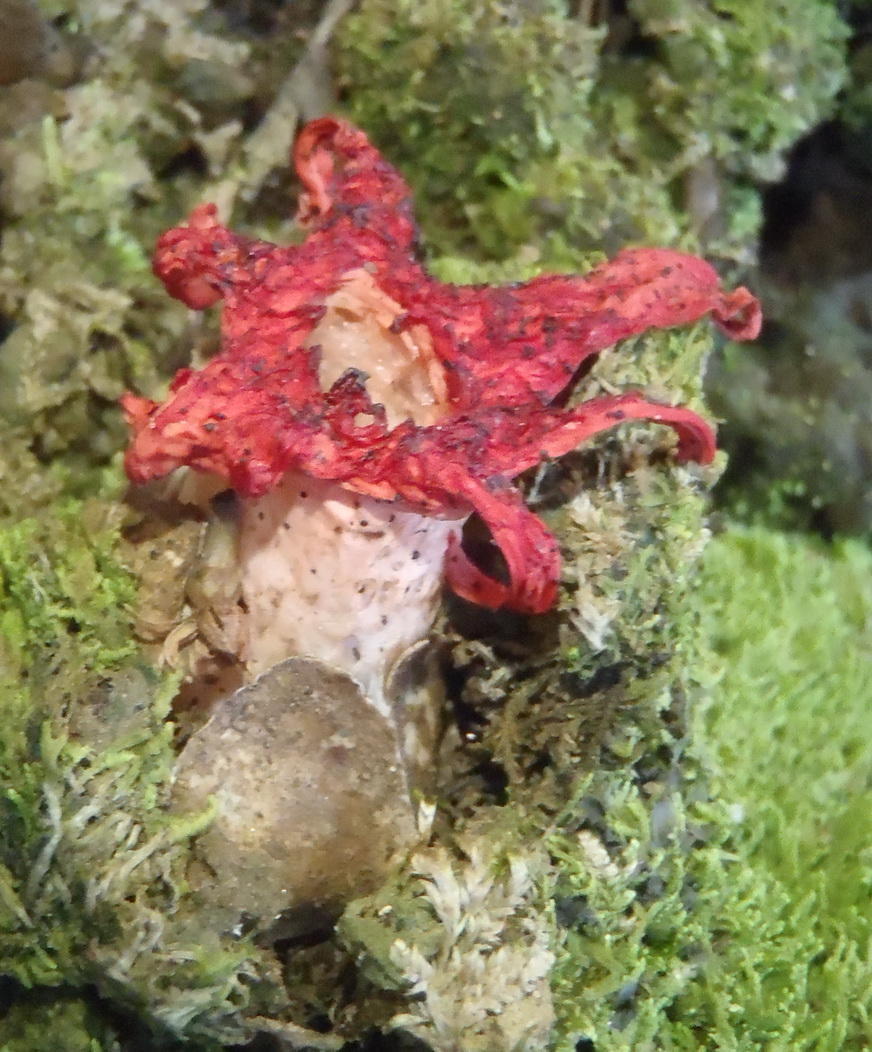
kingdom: Fungi
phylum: Basidiomycota
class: Agaricomycetes
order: Phallales
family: Phallaceae
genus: Clathrus
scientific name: Clathrus archeri
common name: Devil's fingers
